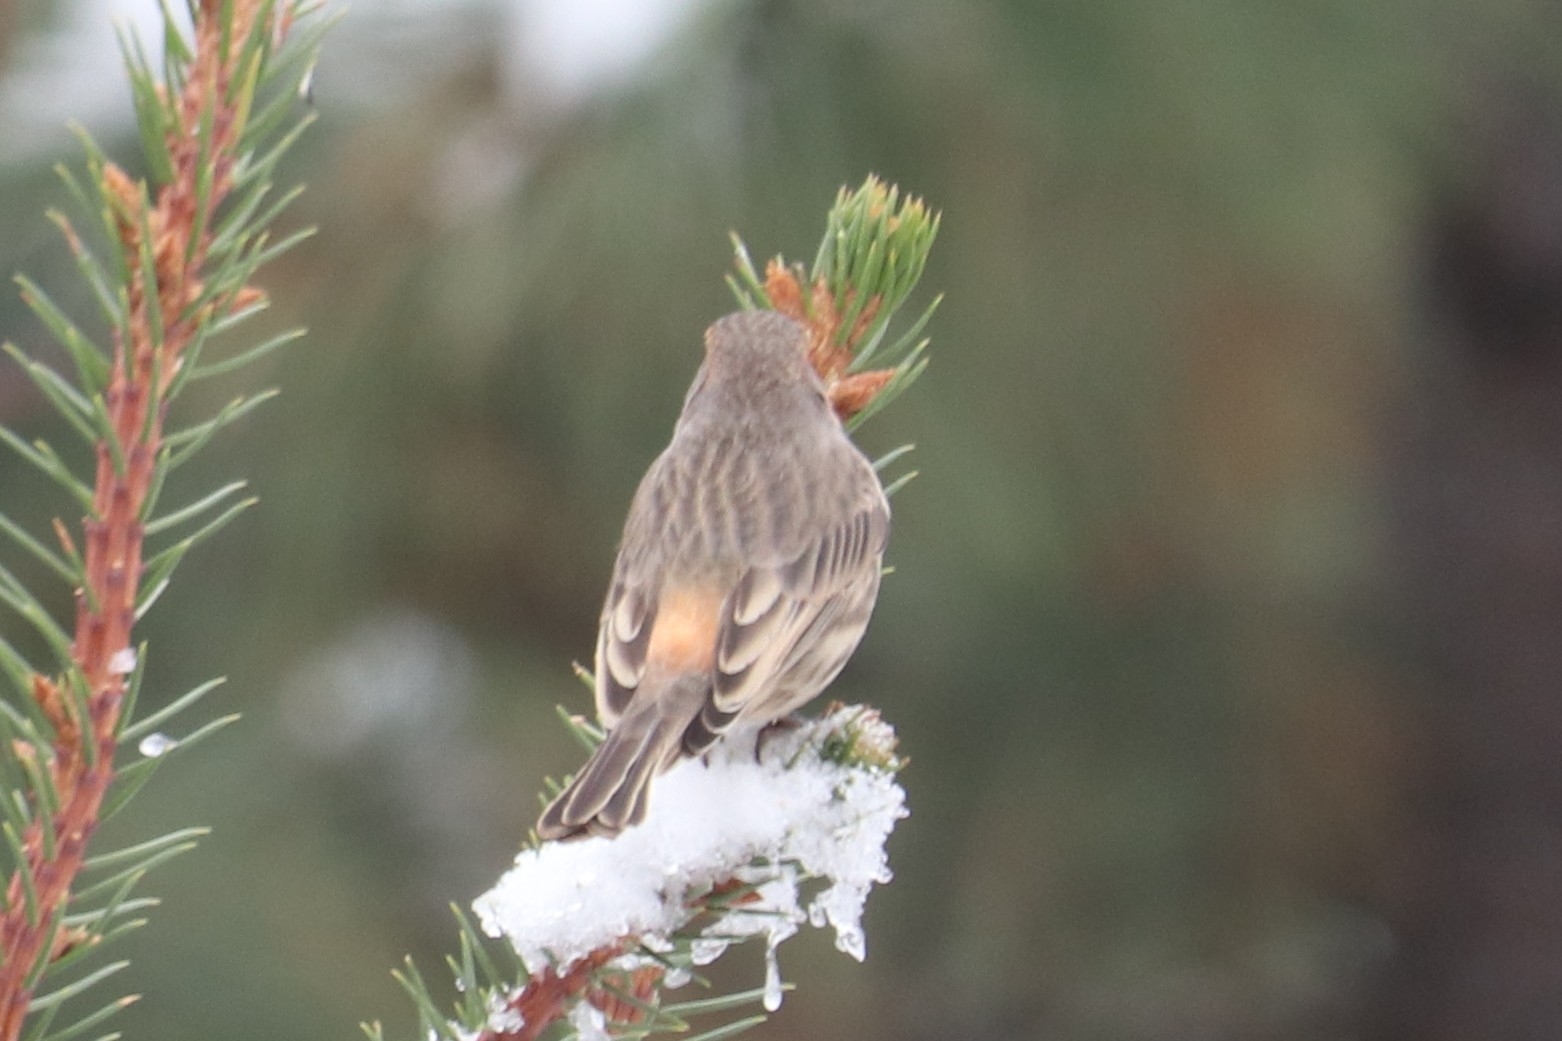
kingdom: Animalia
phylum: Chordata
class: Aves
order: Passeriformes
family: Fringillidae
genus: Haemorhous
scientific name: Haemorhous mexicanus
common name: House finch
